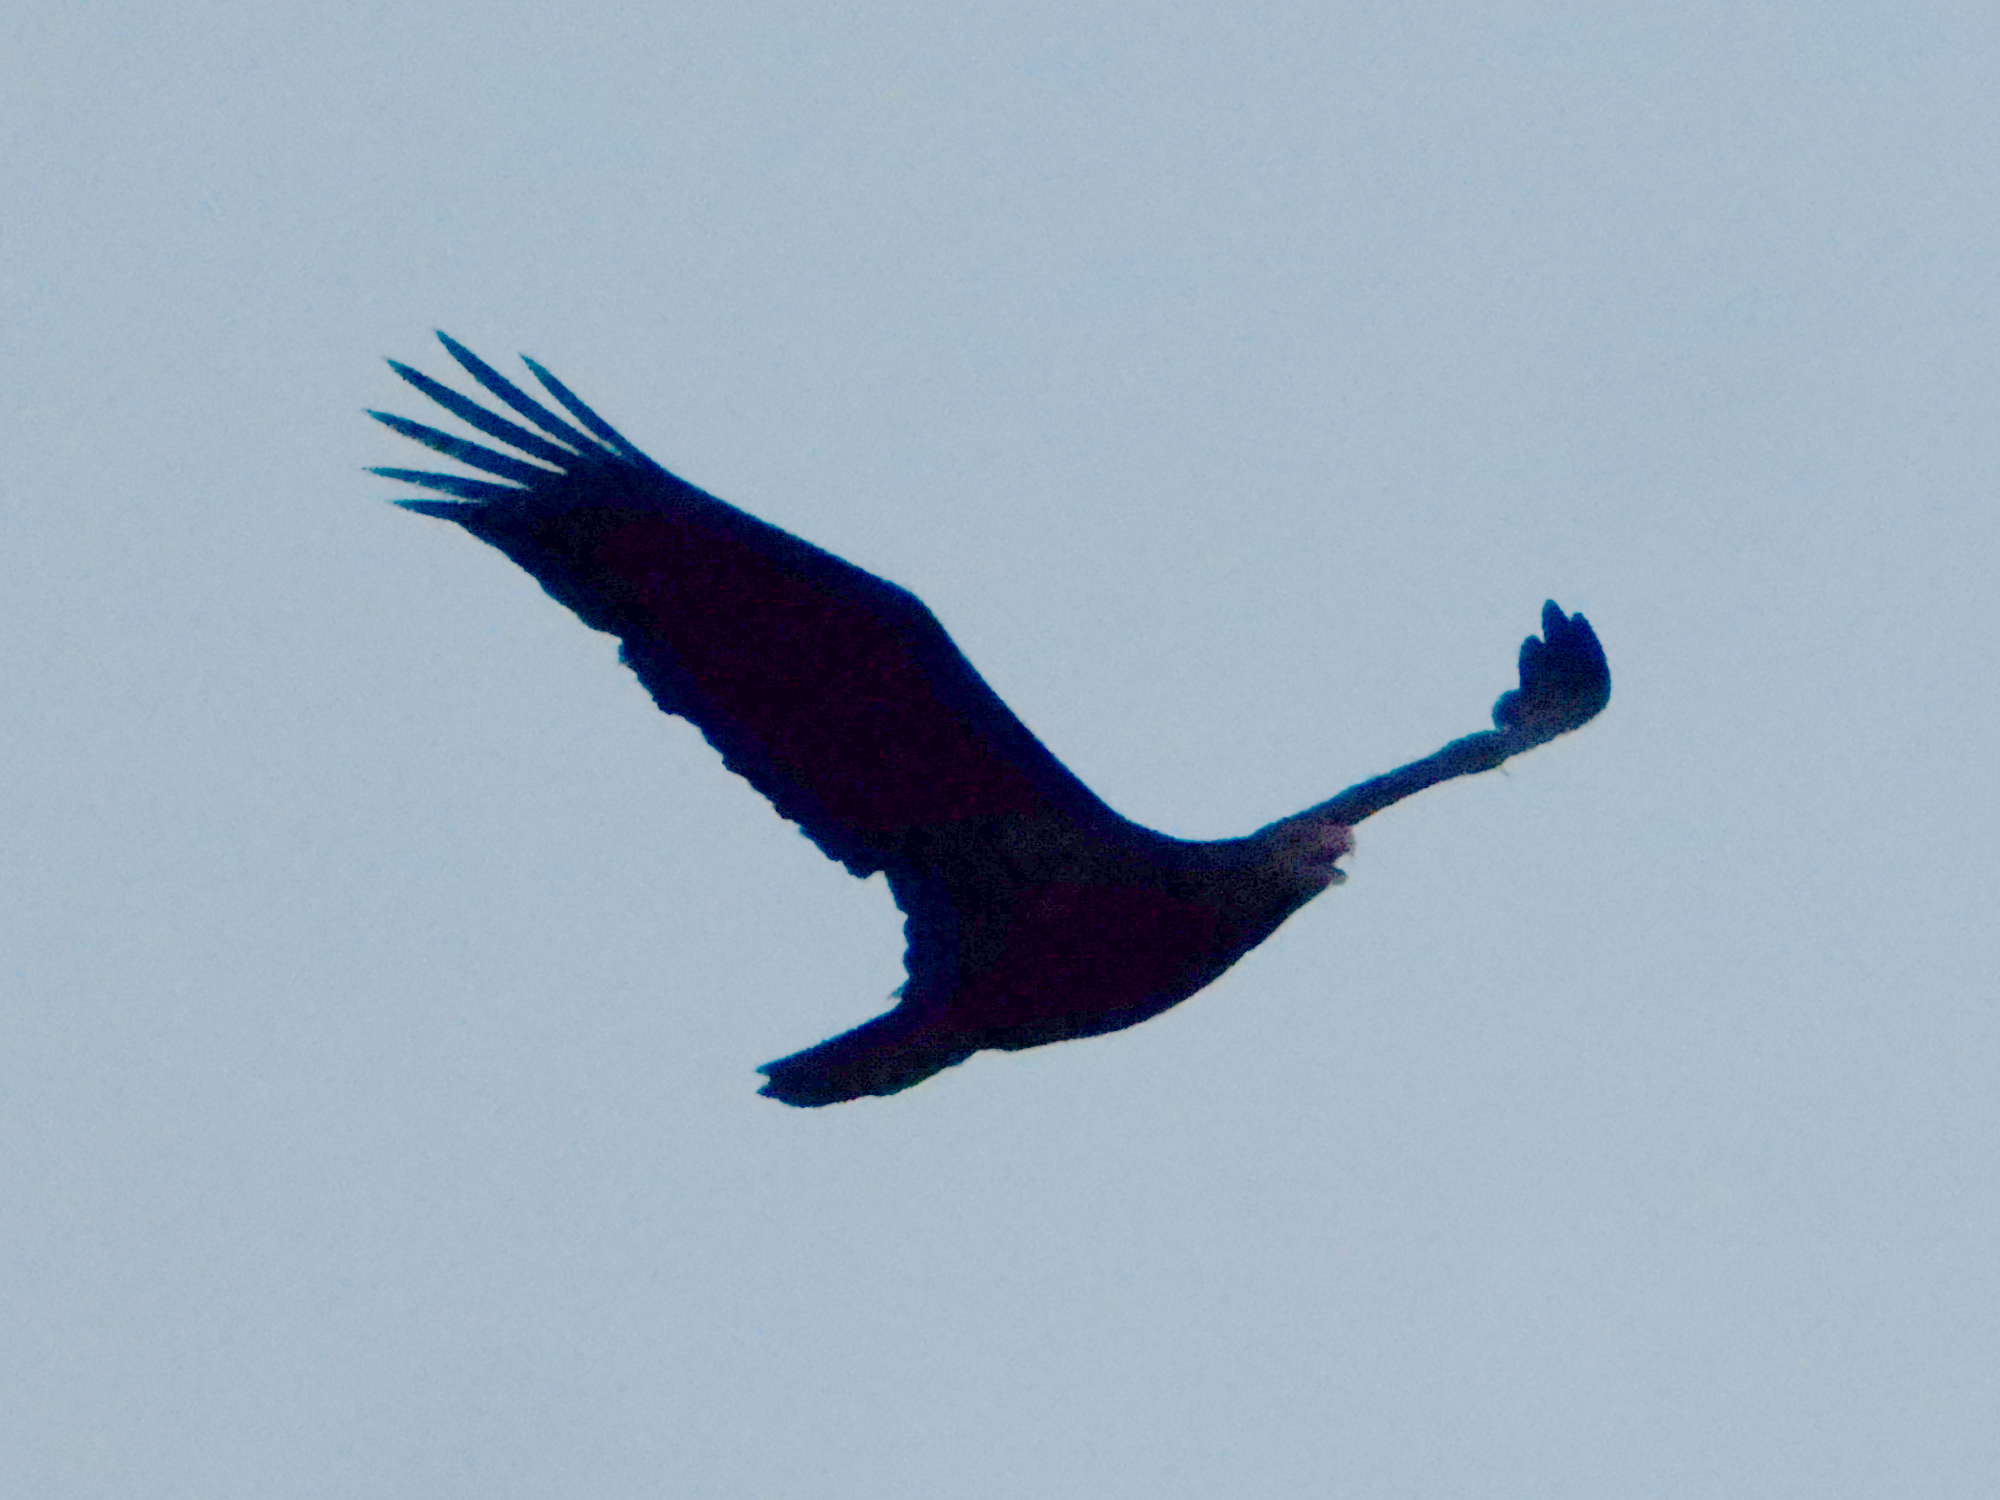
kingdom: Animalia
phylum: Chordata
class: Aves
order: Accipitriformes
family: Accipitridae
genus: Haliaeetus
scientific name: Haliaeetus leucocephalus
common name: Bald eagle
